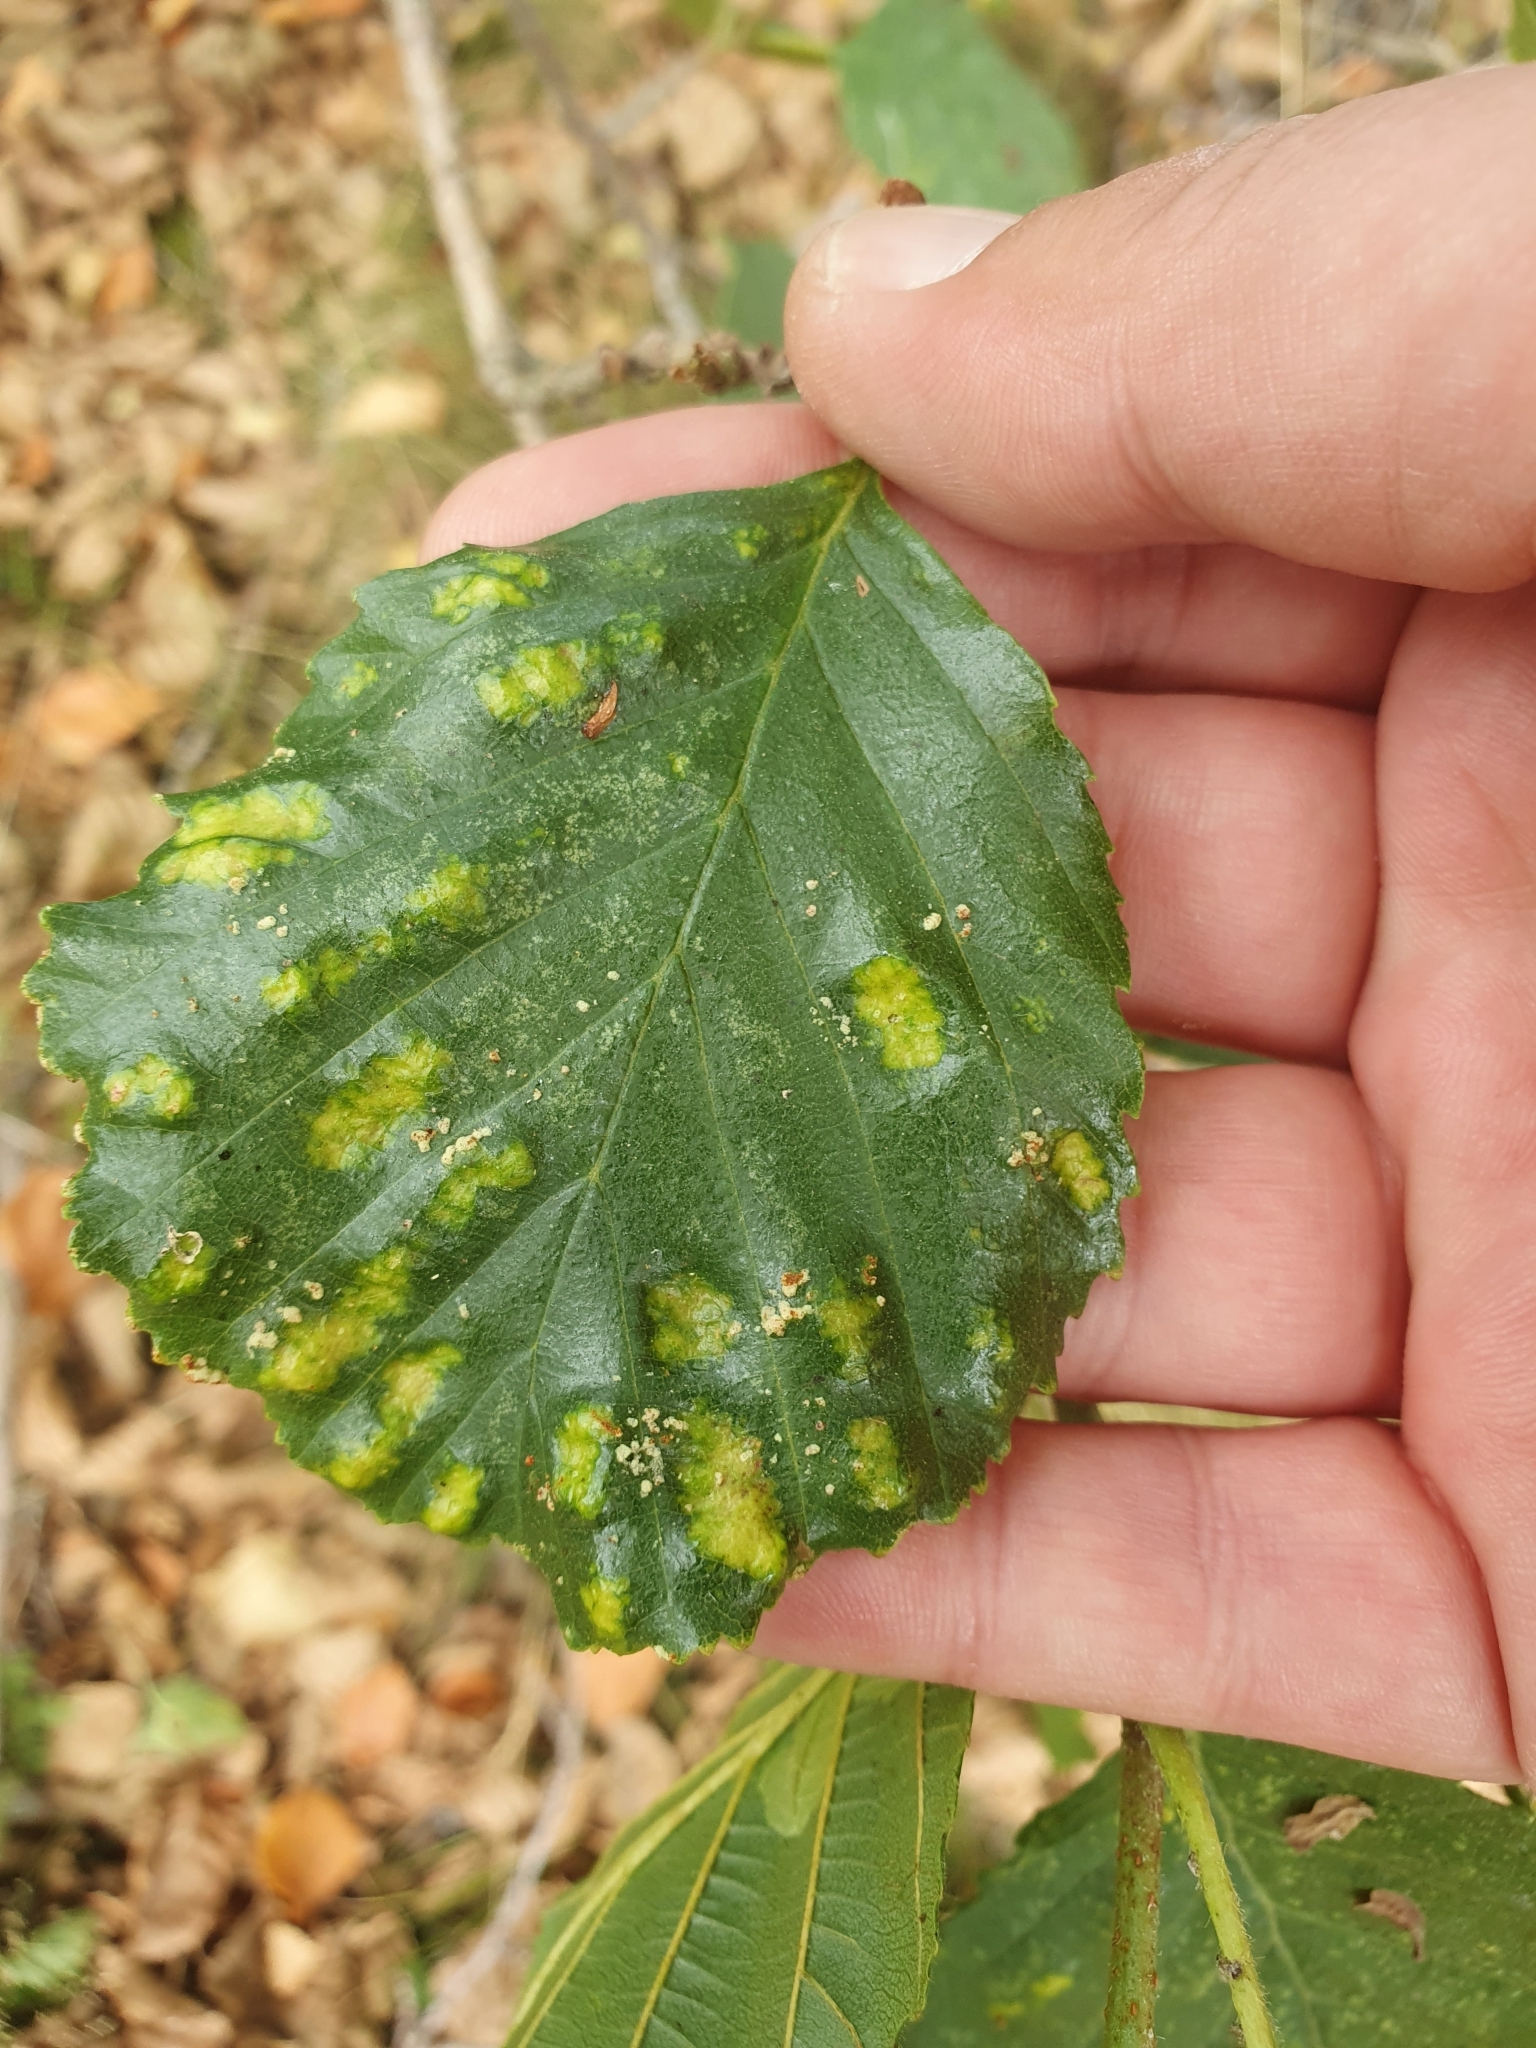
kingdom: Animalia
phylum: Arthropoda
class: Arachnida
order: Trombidiformes
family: Eriophyidae
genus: Acalitus
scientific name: Acalitus brevitarsus
